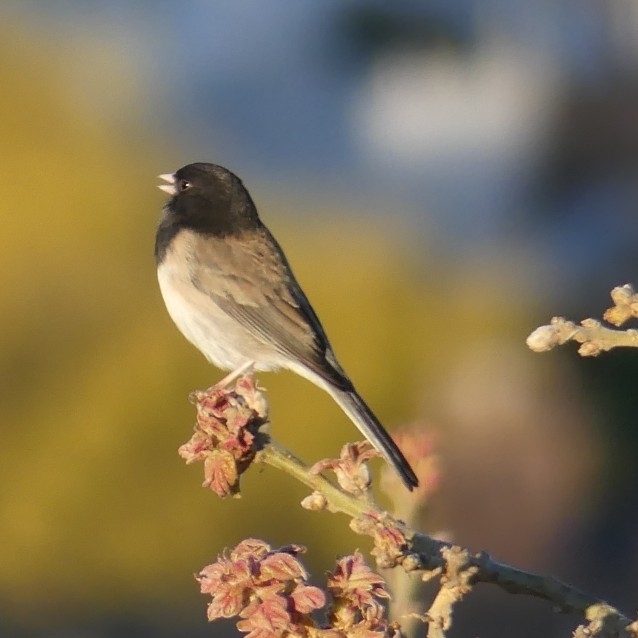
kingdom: Animalia
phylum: Chordata
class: Aves
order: Passeriformes
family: Passerellidae
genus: Junco
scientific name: Junco hyemalis
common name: Dark-eyed junco
